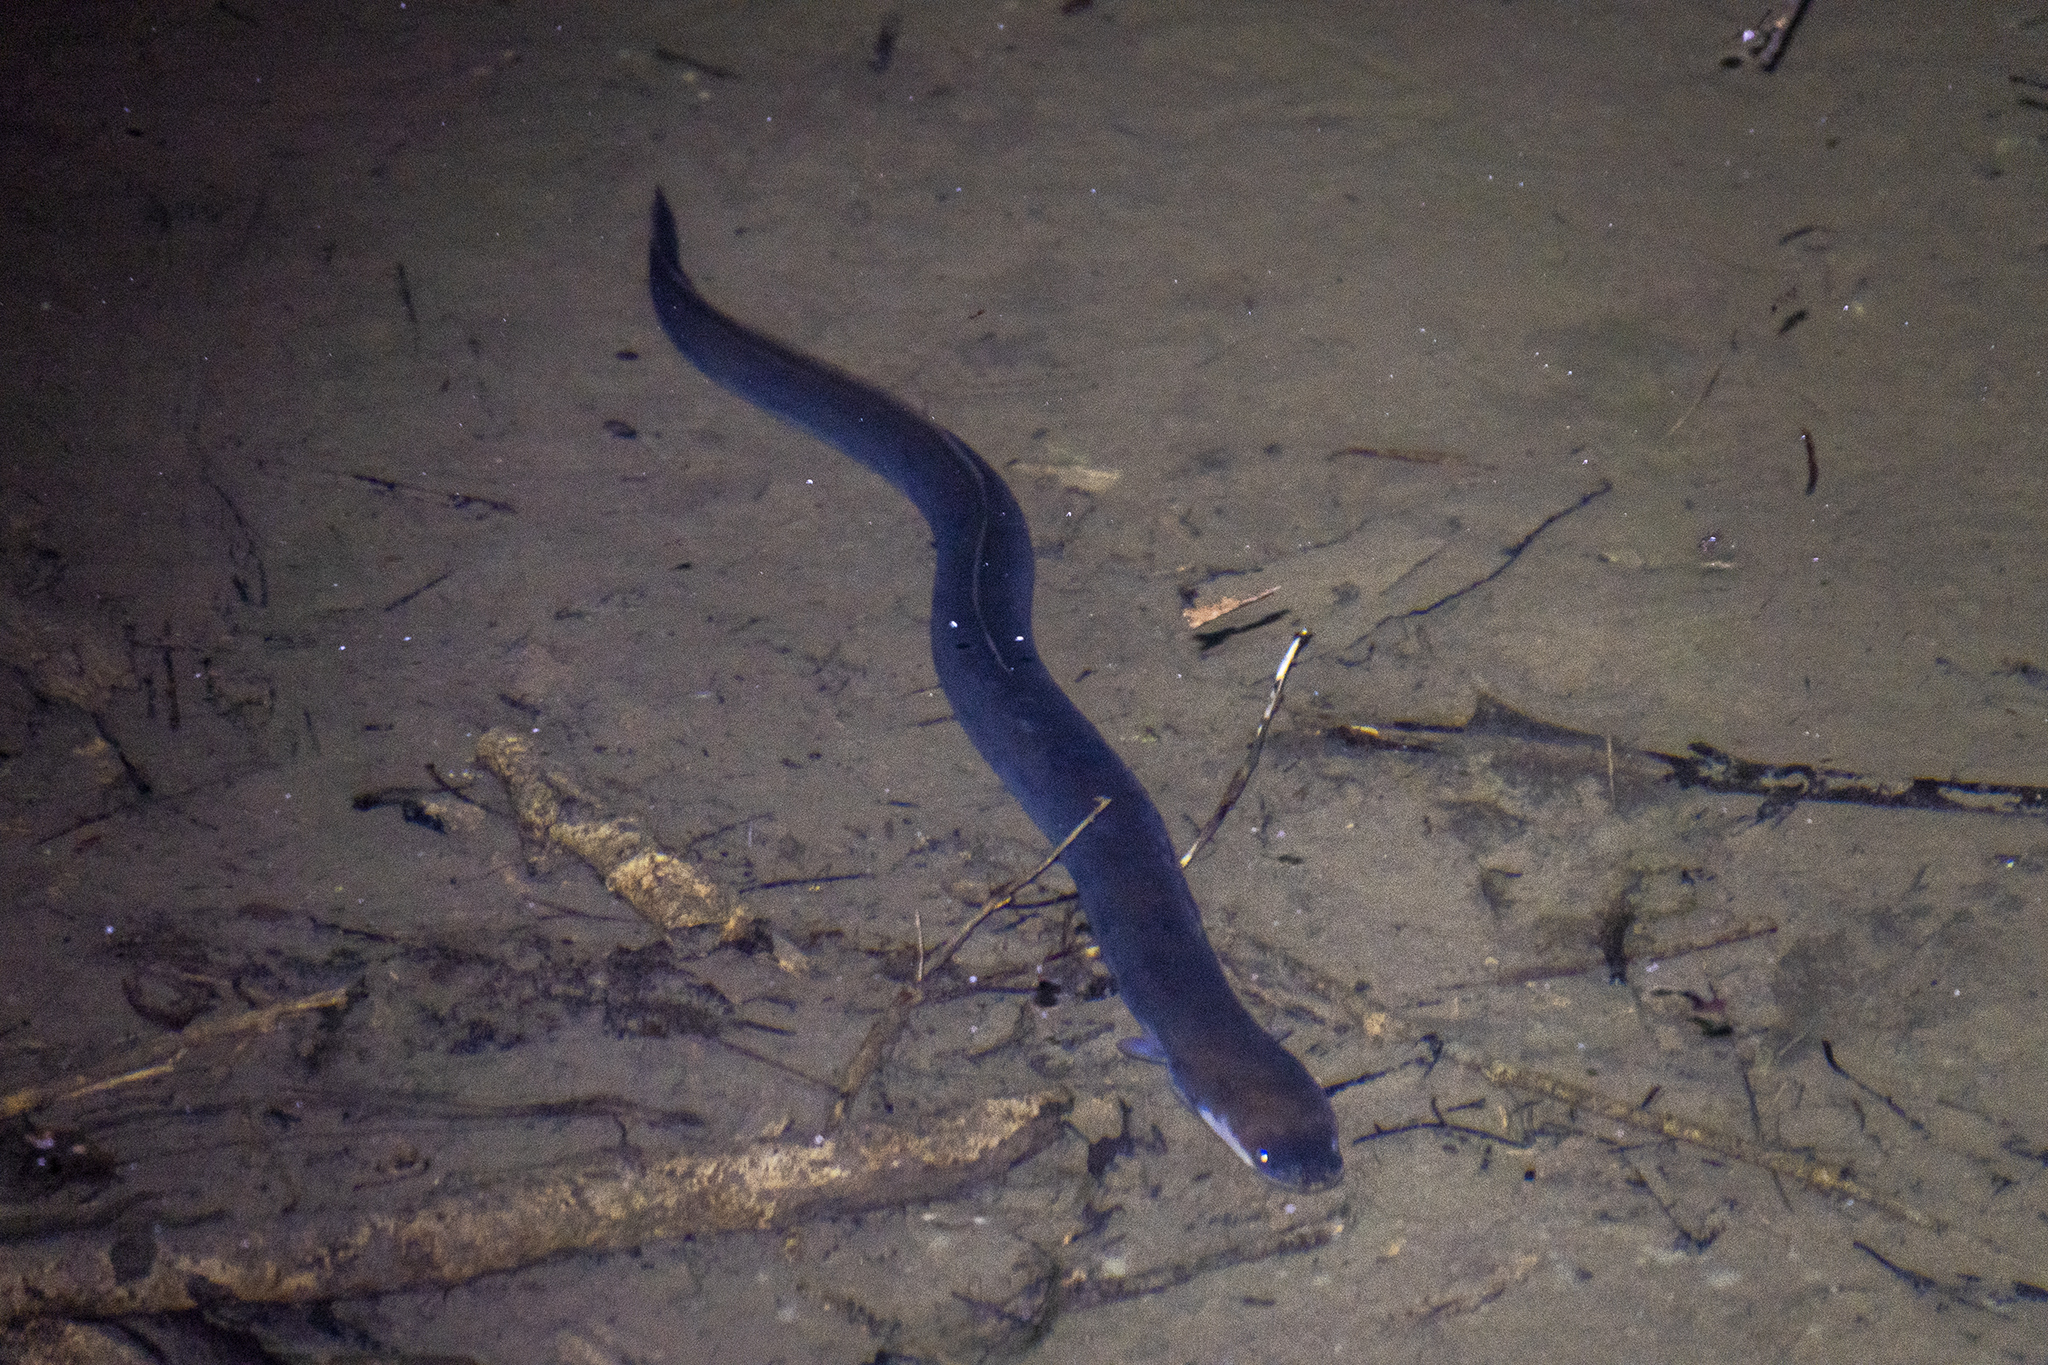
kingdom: Animalia
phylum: Chordata
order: Anguilliformes
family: Anguillidae
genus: Anguilla
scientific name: Anguilla australis
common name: Shortfin eel
